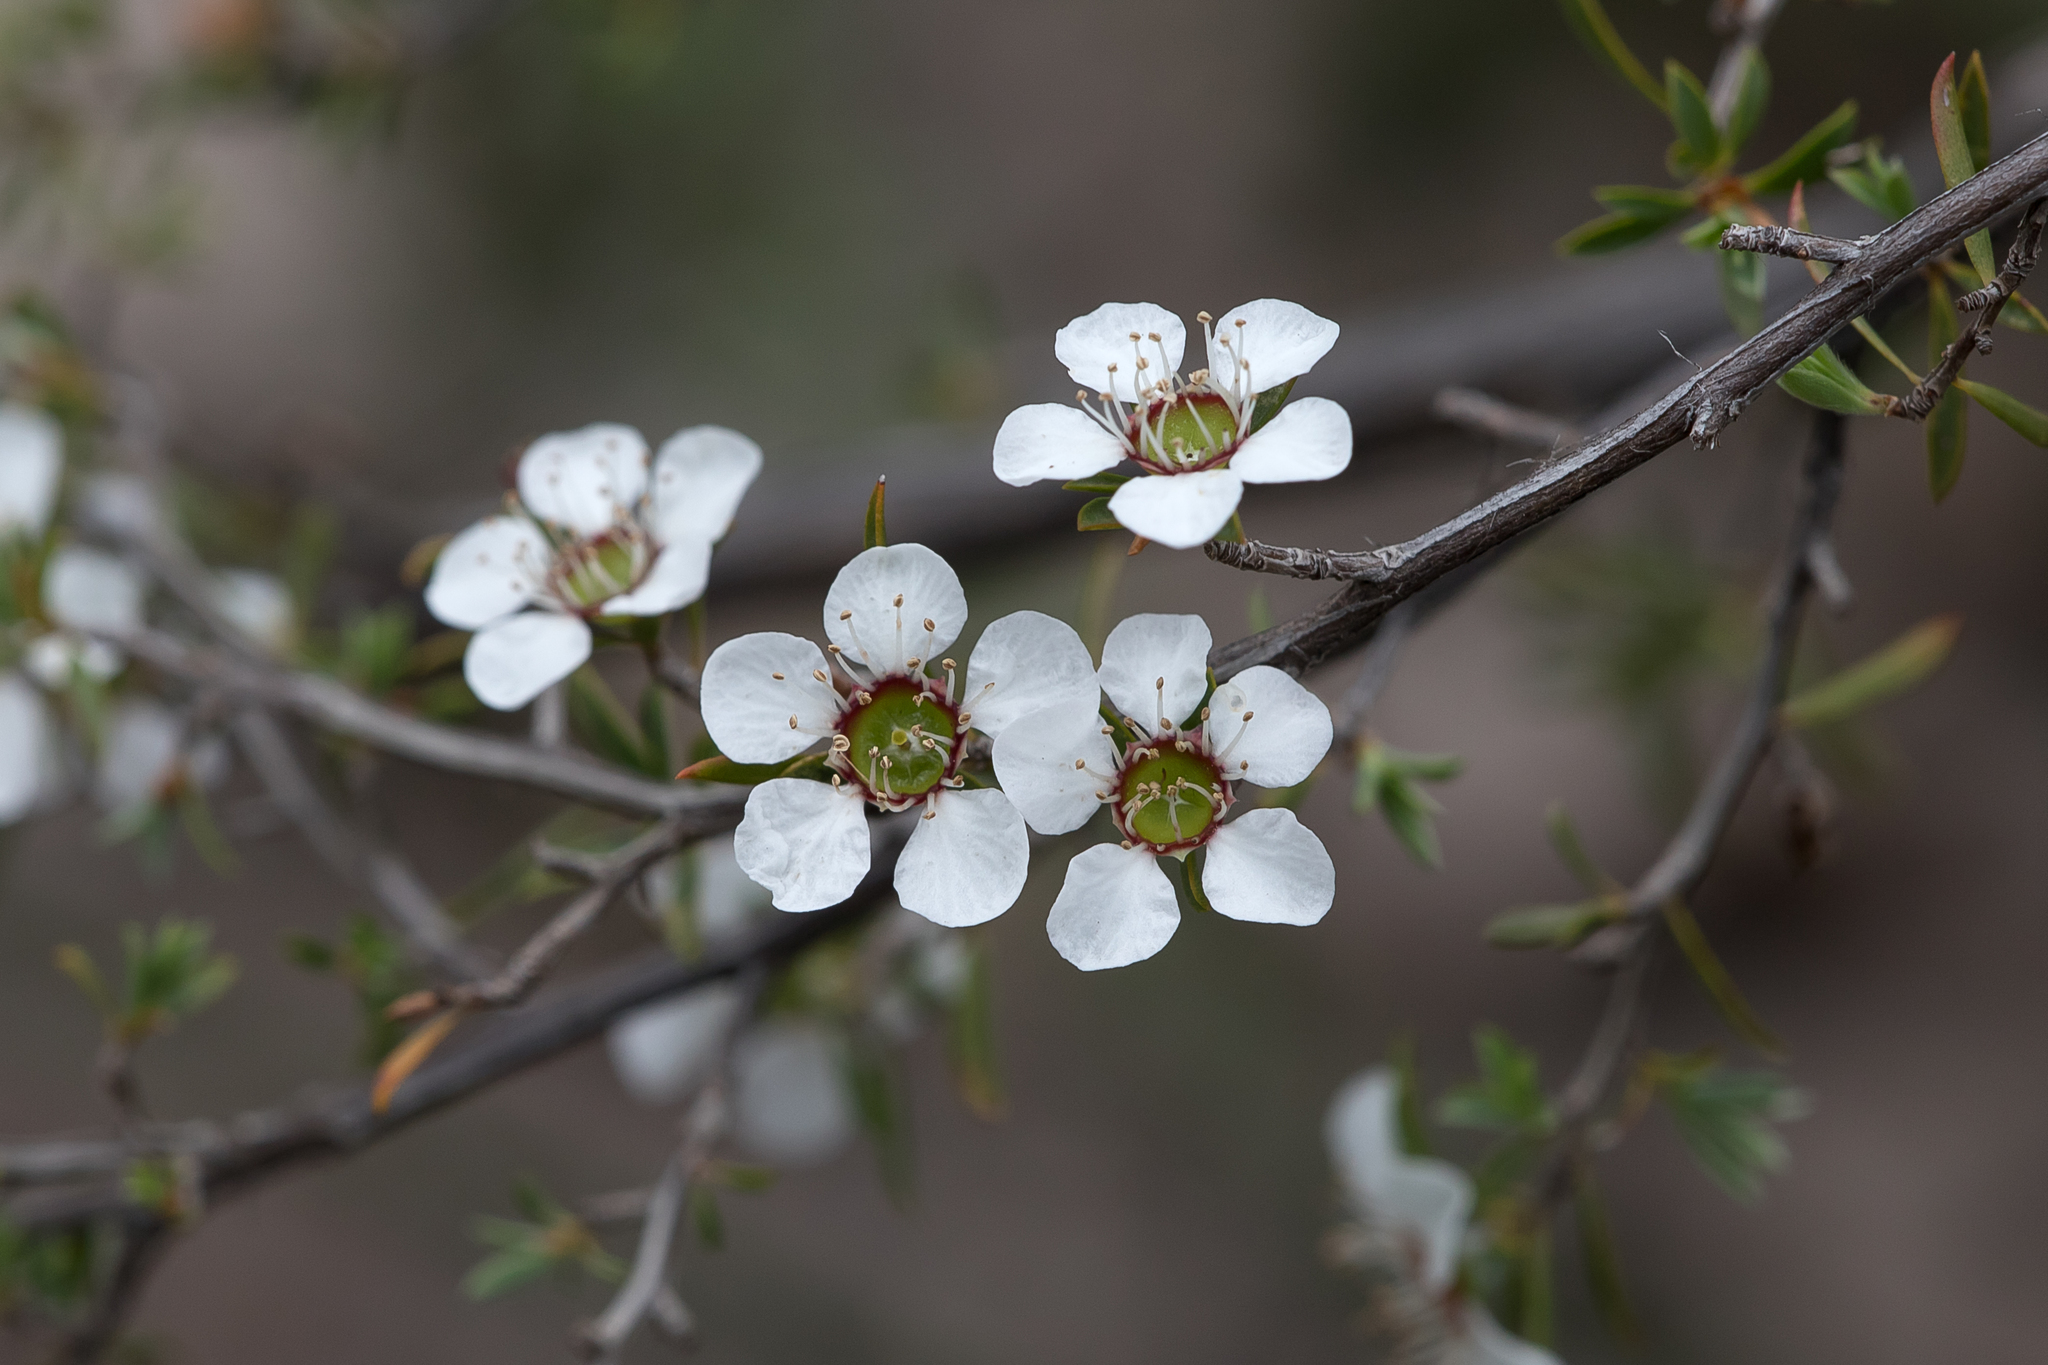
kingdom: Plantae
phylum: Tracheophyta
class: Magnoliopsida
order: Myrtales
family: Myrtaceae
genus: Leptospermum
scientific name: Leptospermum myrsinoides
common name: Heath teatree
